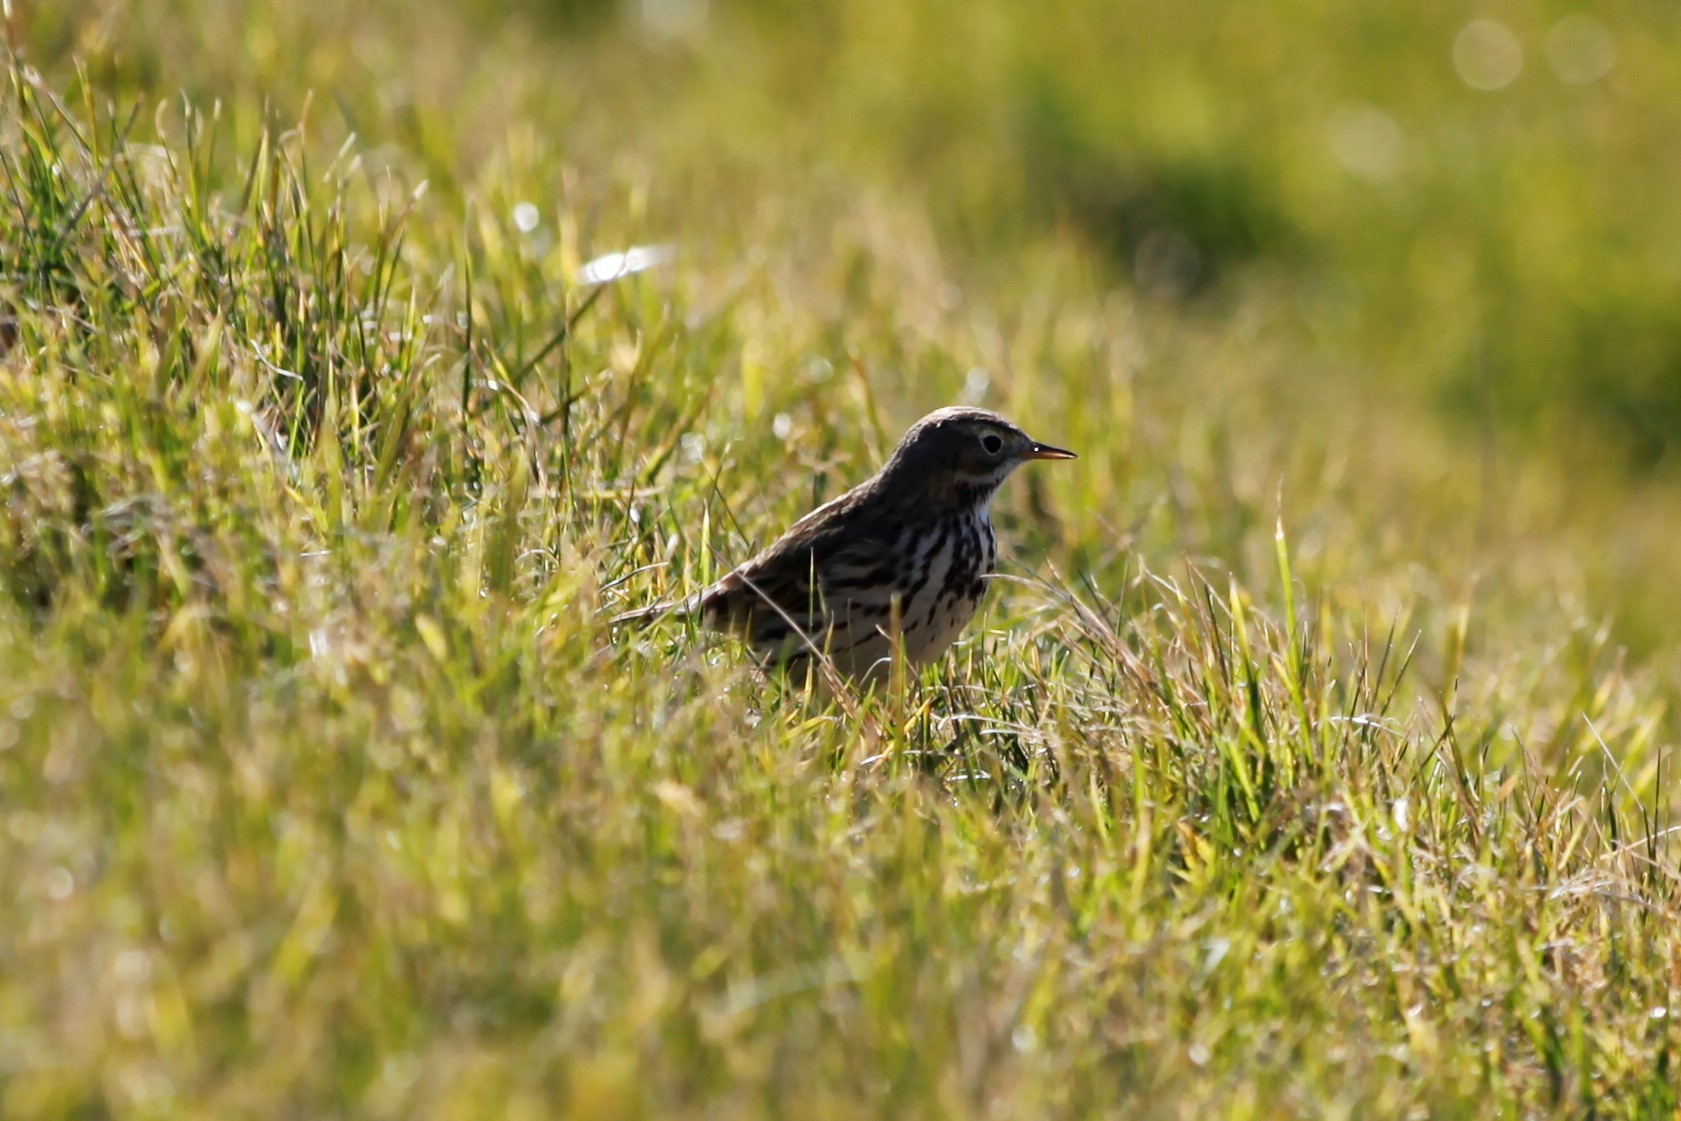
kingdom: Animalia
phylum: Chordata
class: Aves
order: Passeriformes
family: Motacillidae
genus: Anthus
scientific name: Anthus pratensis
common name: Meadow pipit
